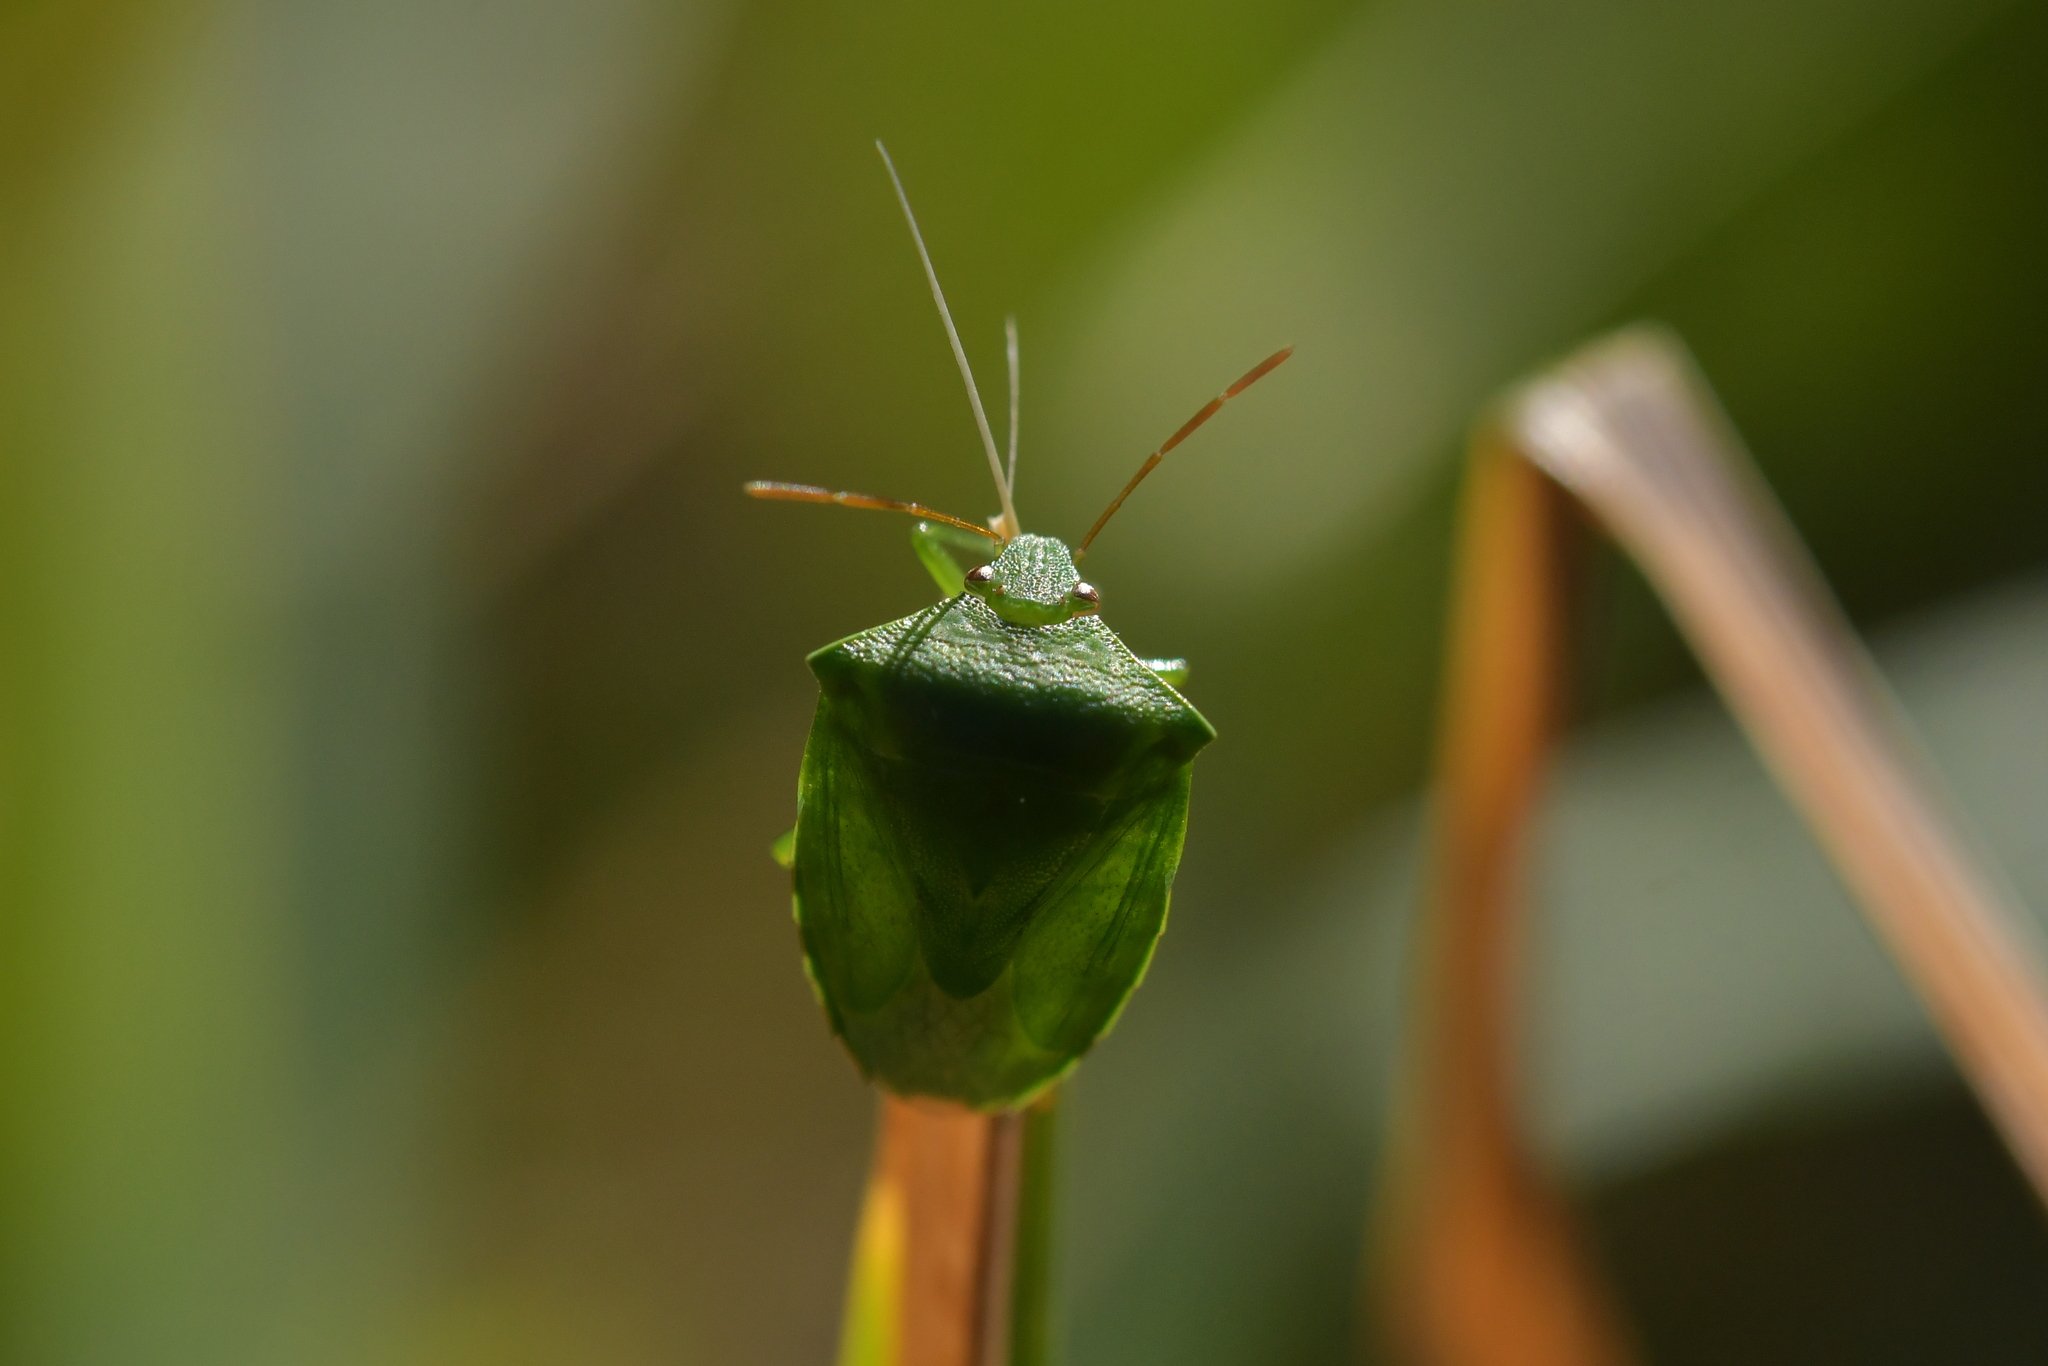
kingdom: Animalia
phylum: Arthropoda
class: Insecta
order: Hemiptera
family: Pentatomidae
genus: Cuspicona
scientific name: Cuspicona simplex
